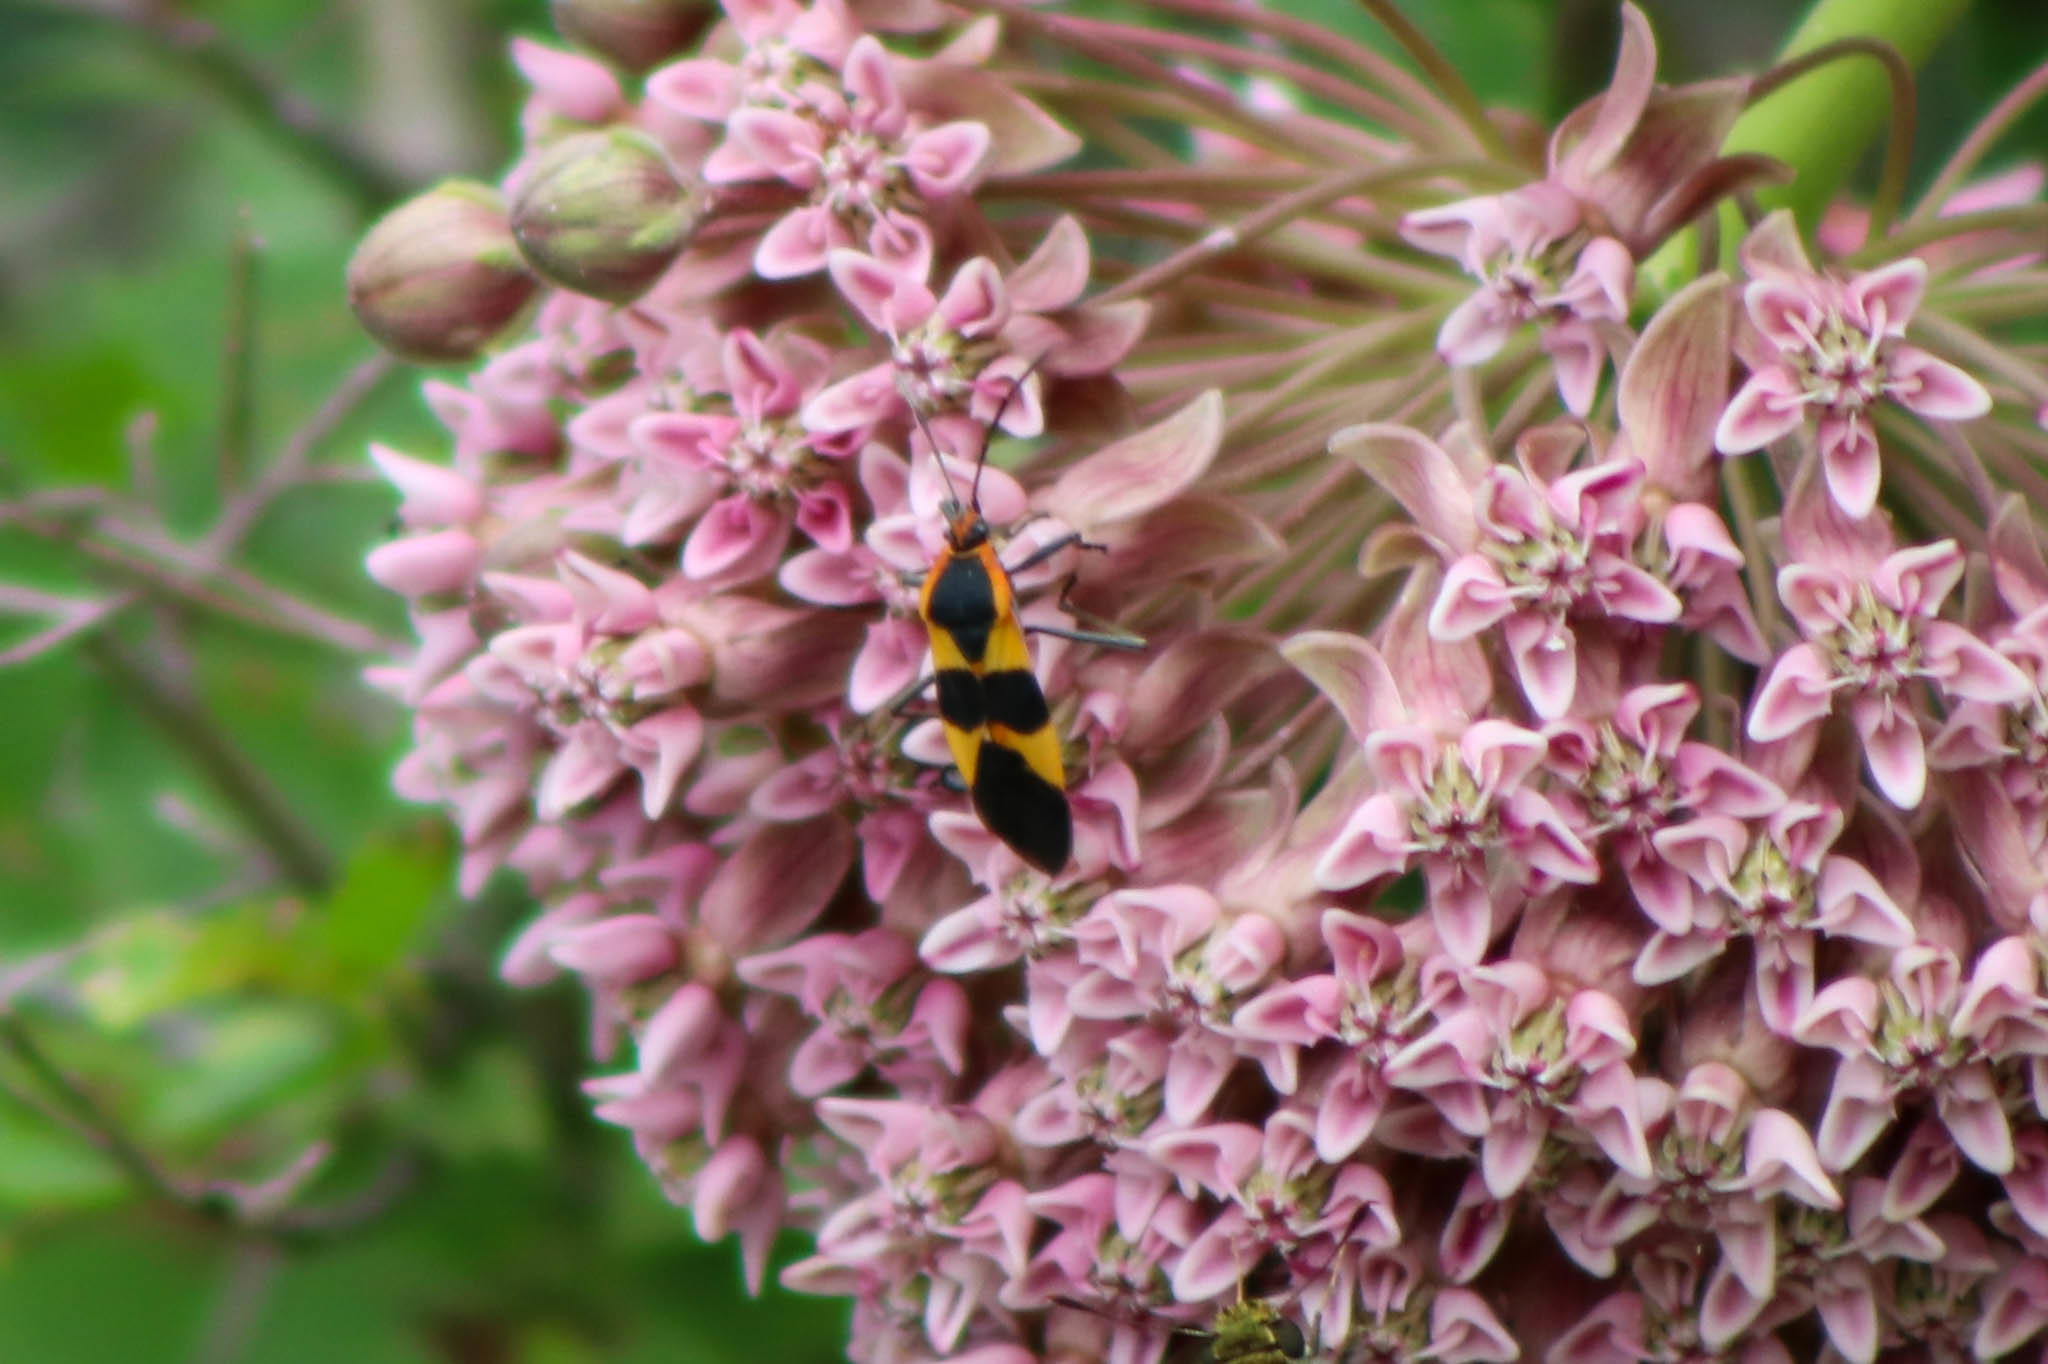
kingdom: Animalia
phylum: Arthropoda
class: Insecta
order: Hemiptera
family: Lygaeidae
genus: Oncopeltus
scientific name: Oncopeltus fasciatus
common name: Large milkweed bug
